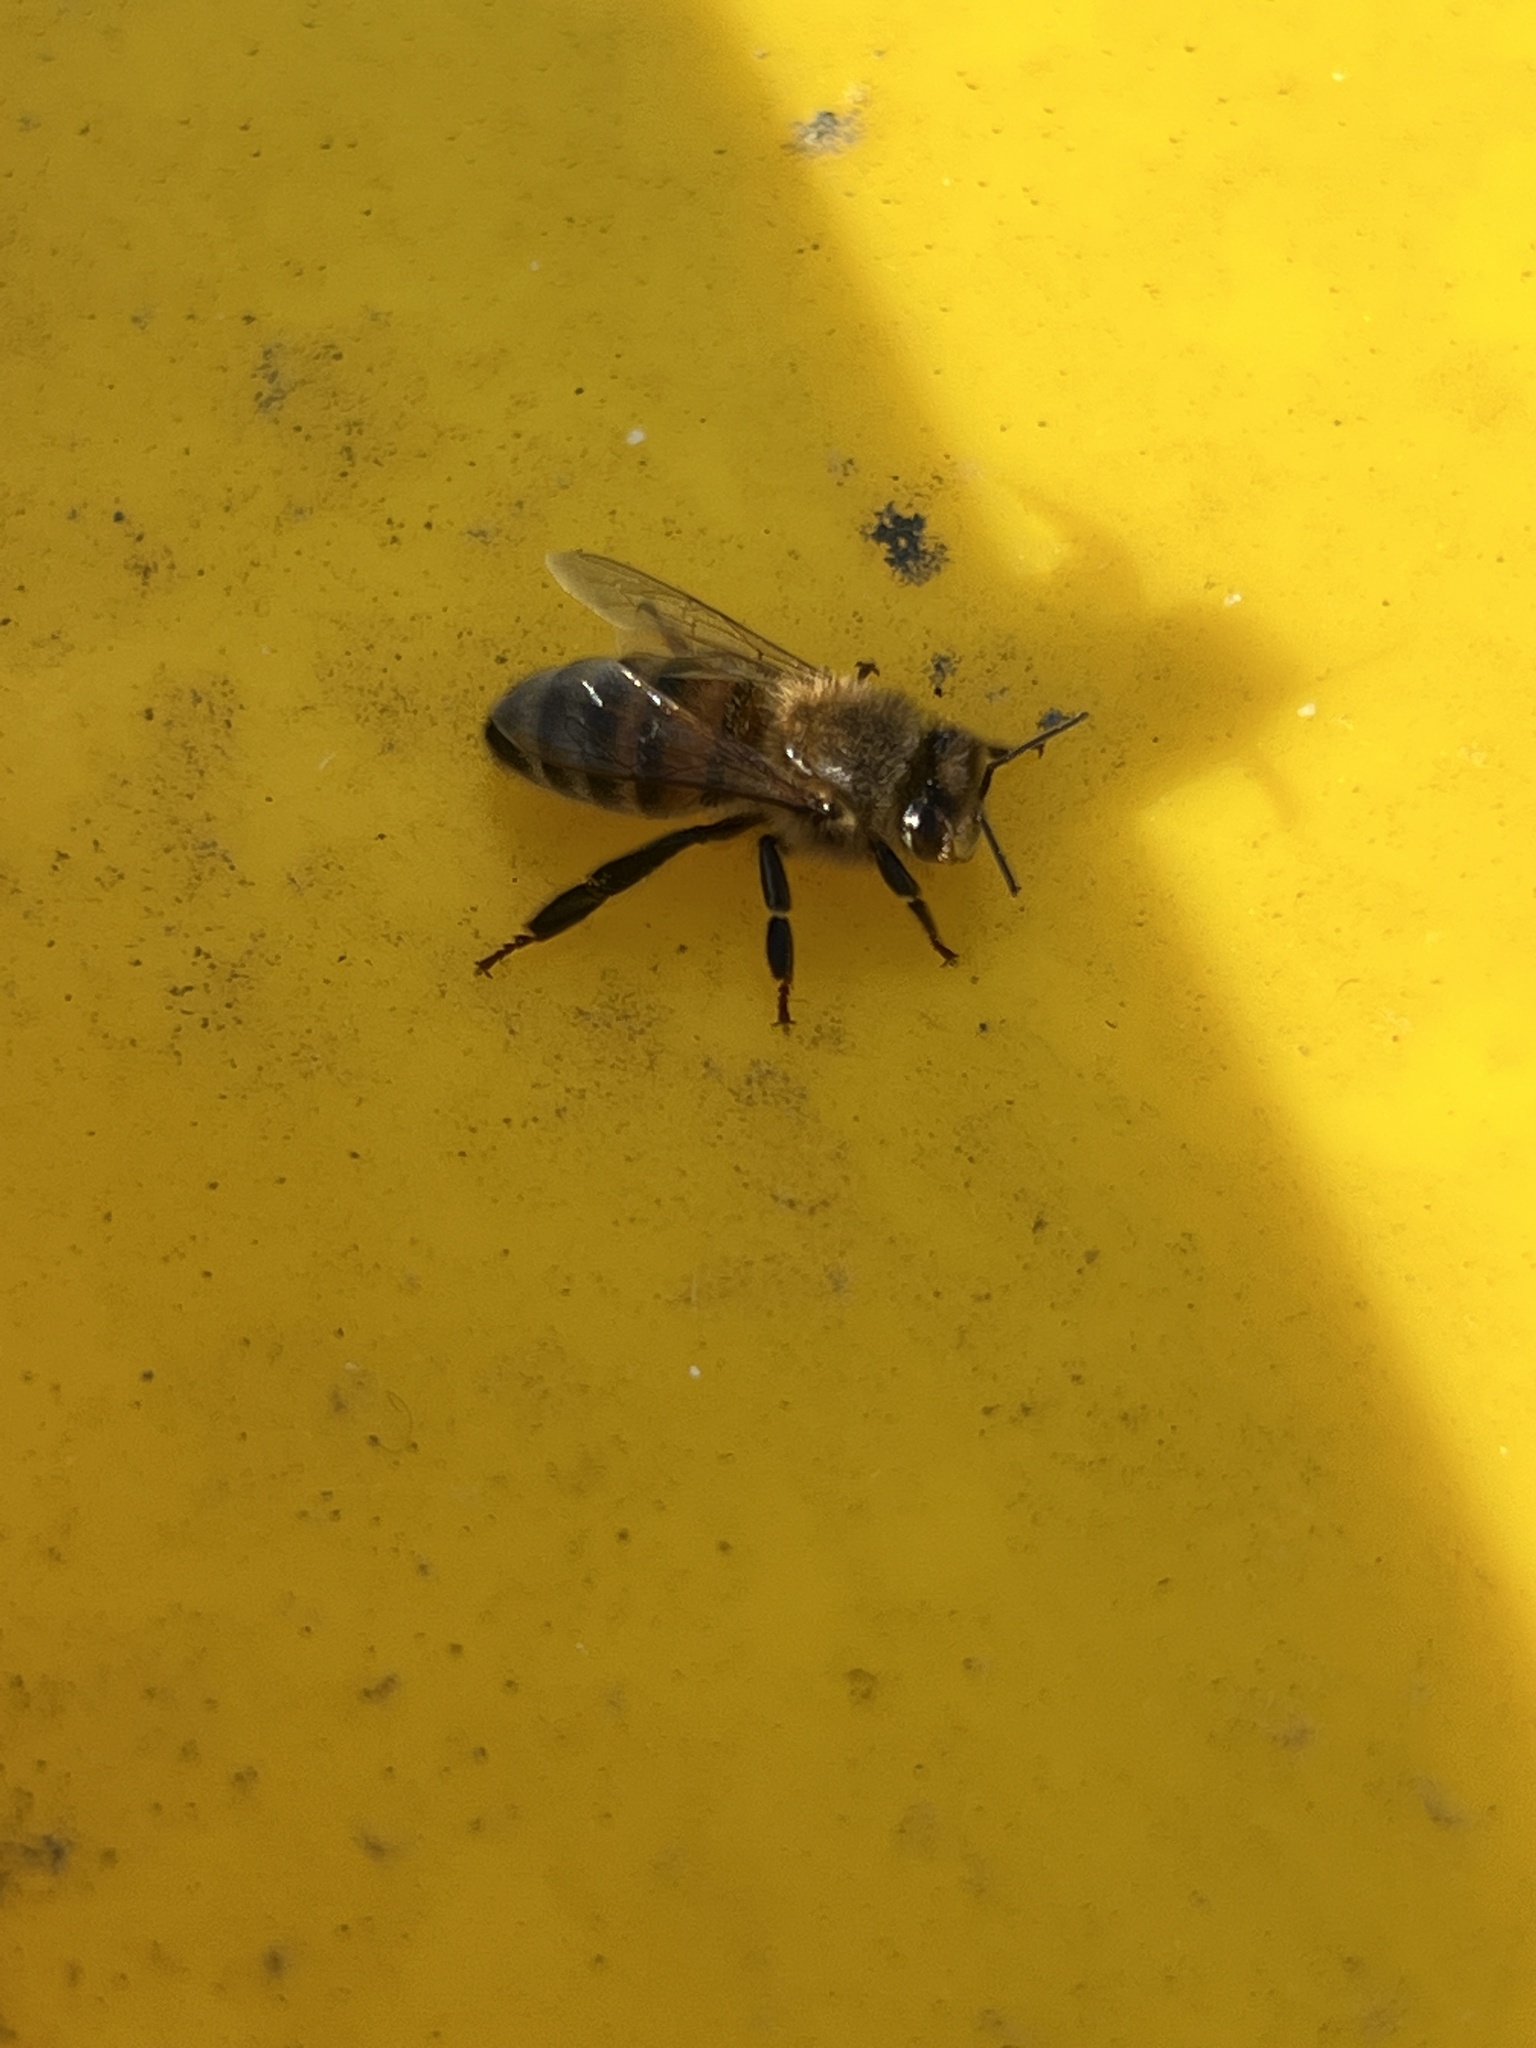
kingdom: Animalia
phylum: Arthropoda
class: Insecta
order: Hymenoptera
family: Apidae
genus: Apis
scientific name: Apis mellifera
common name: Honey bee
